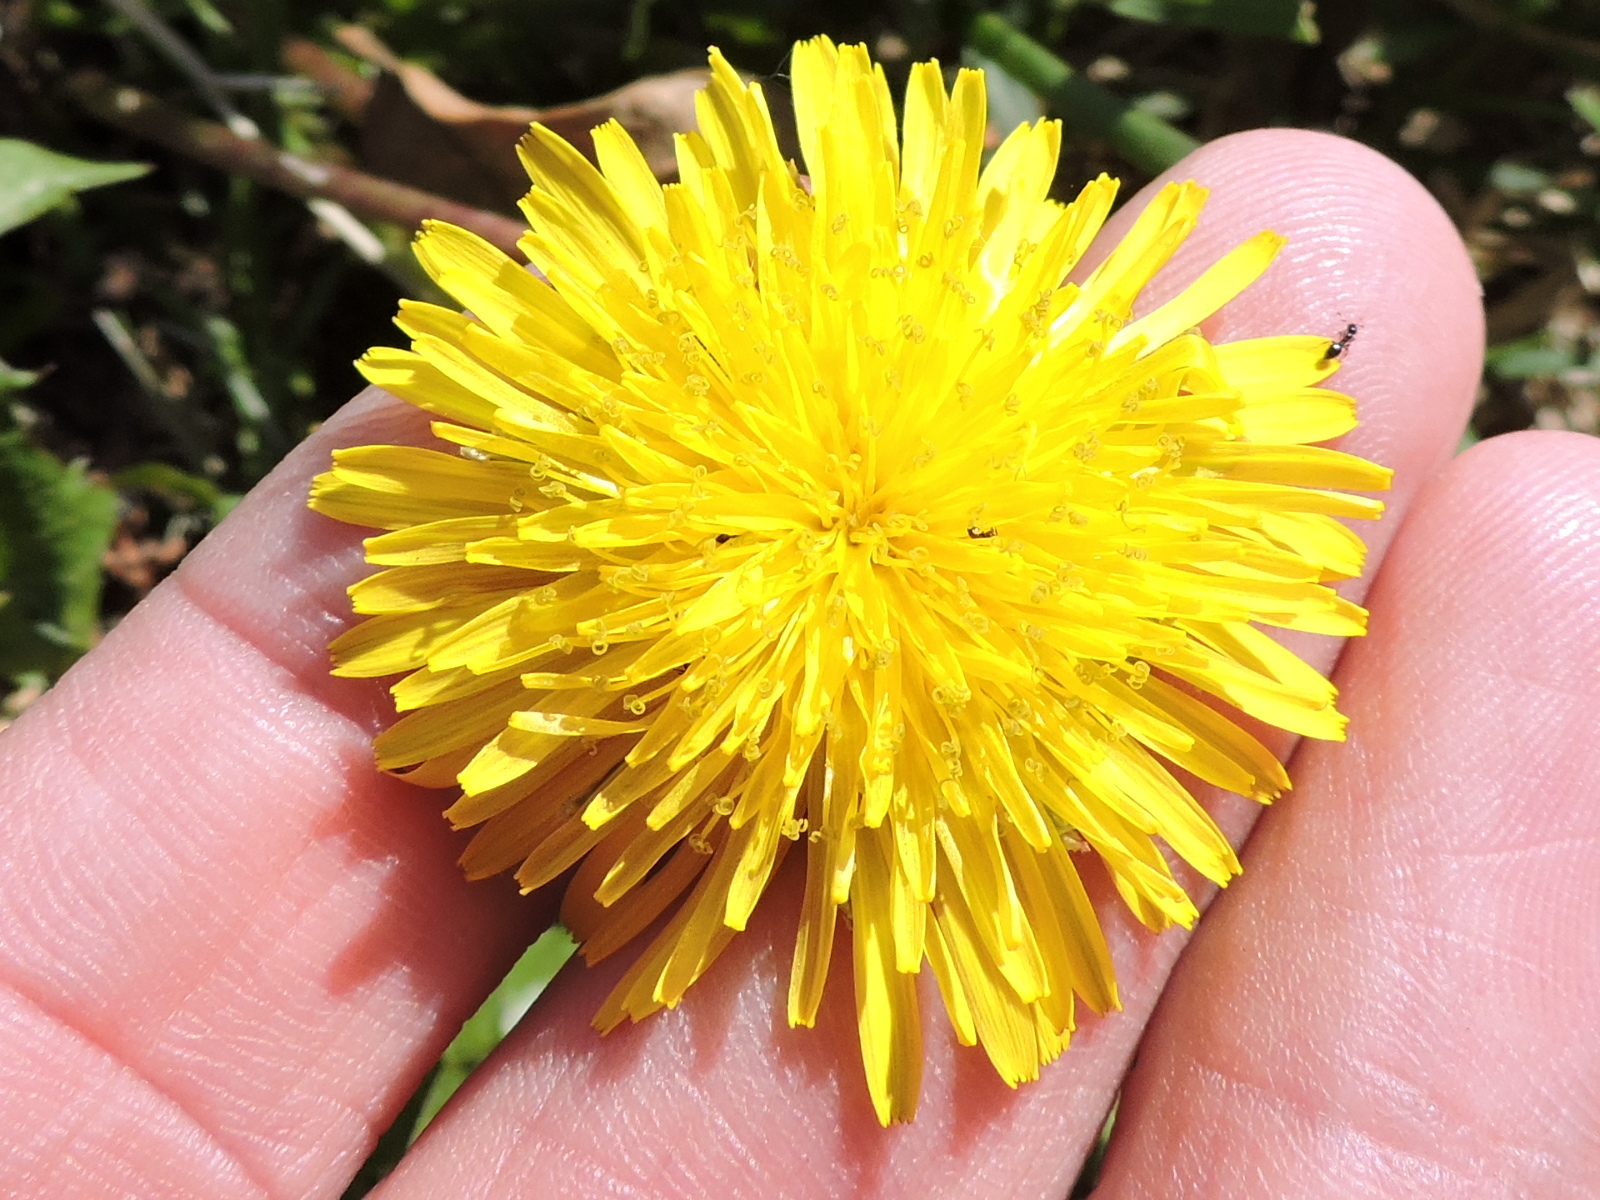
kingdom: Plantae
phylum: Tracheophyta
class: Magnoliopsida
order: Asterales
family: Asteraceae
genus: Taraxacum
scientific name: Taraxacum officinale
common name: Common dandelion
